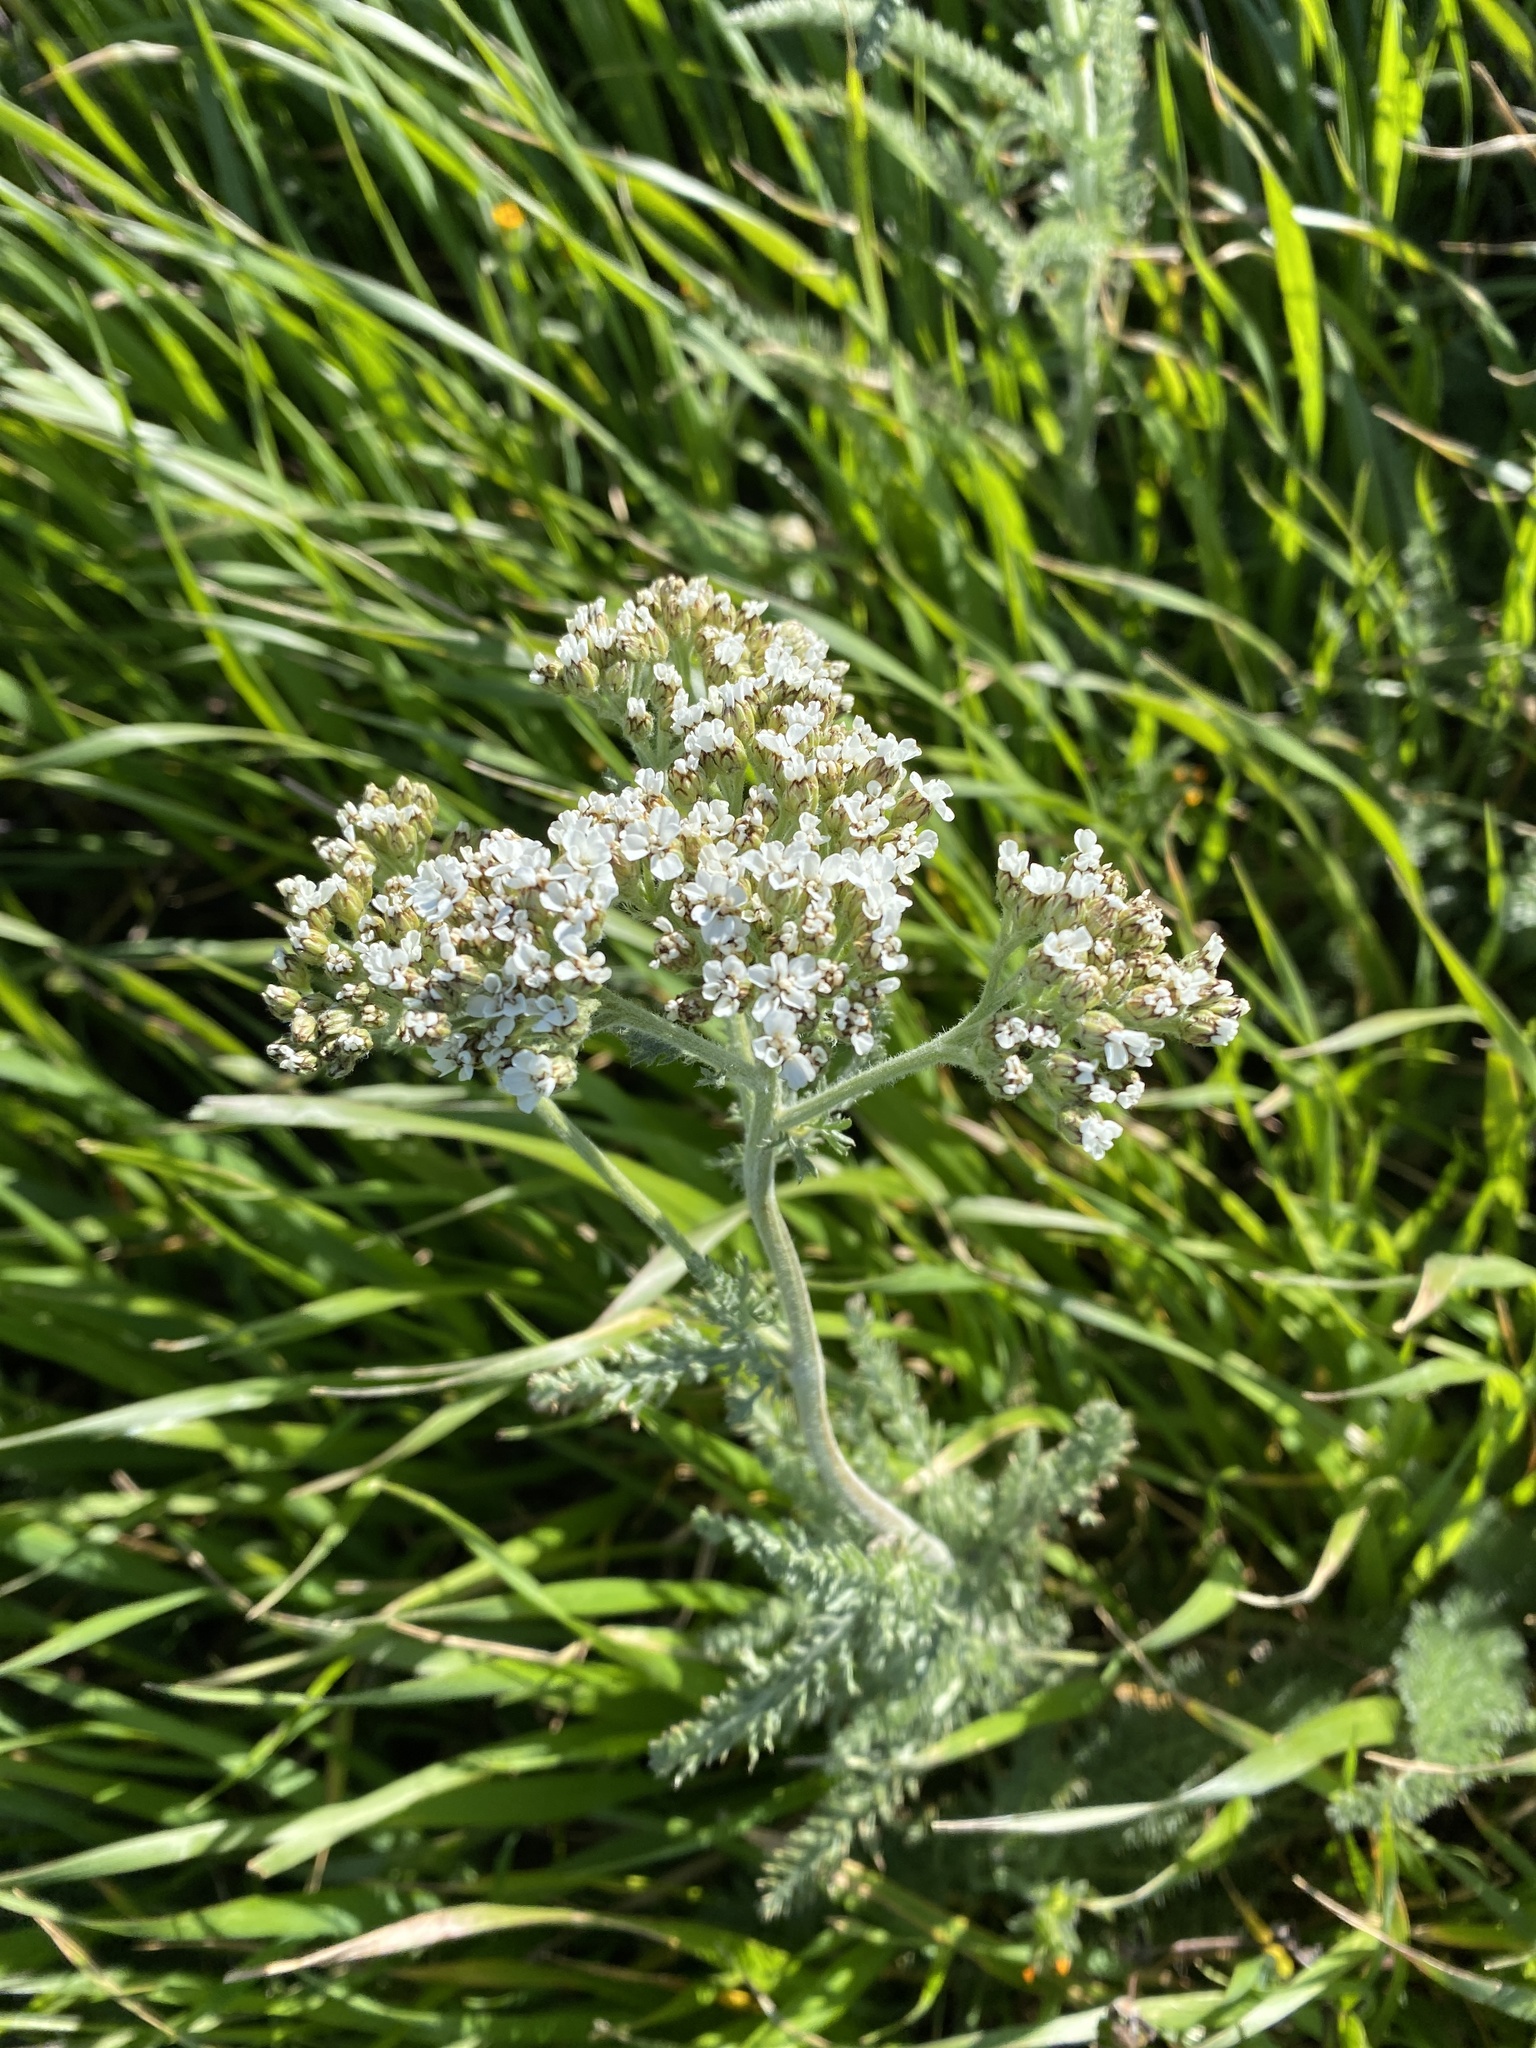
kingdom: Plantae
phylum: Tracheophyta
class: Magnoliopsida
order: Asterales
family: Asteraceae
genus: Achillea
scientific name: Achillea millefolium
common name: Yarrow
